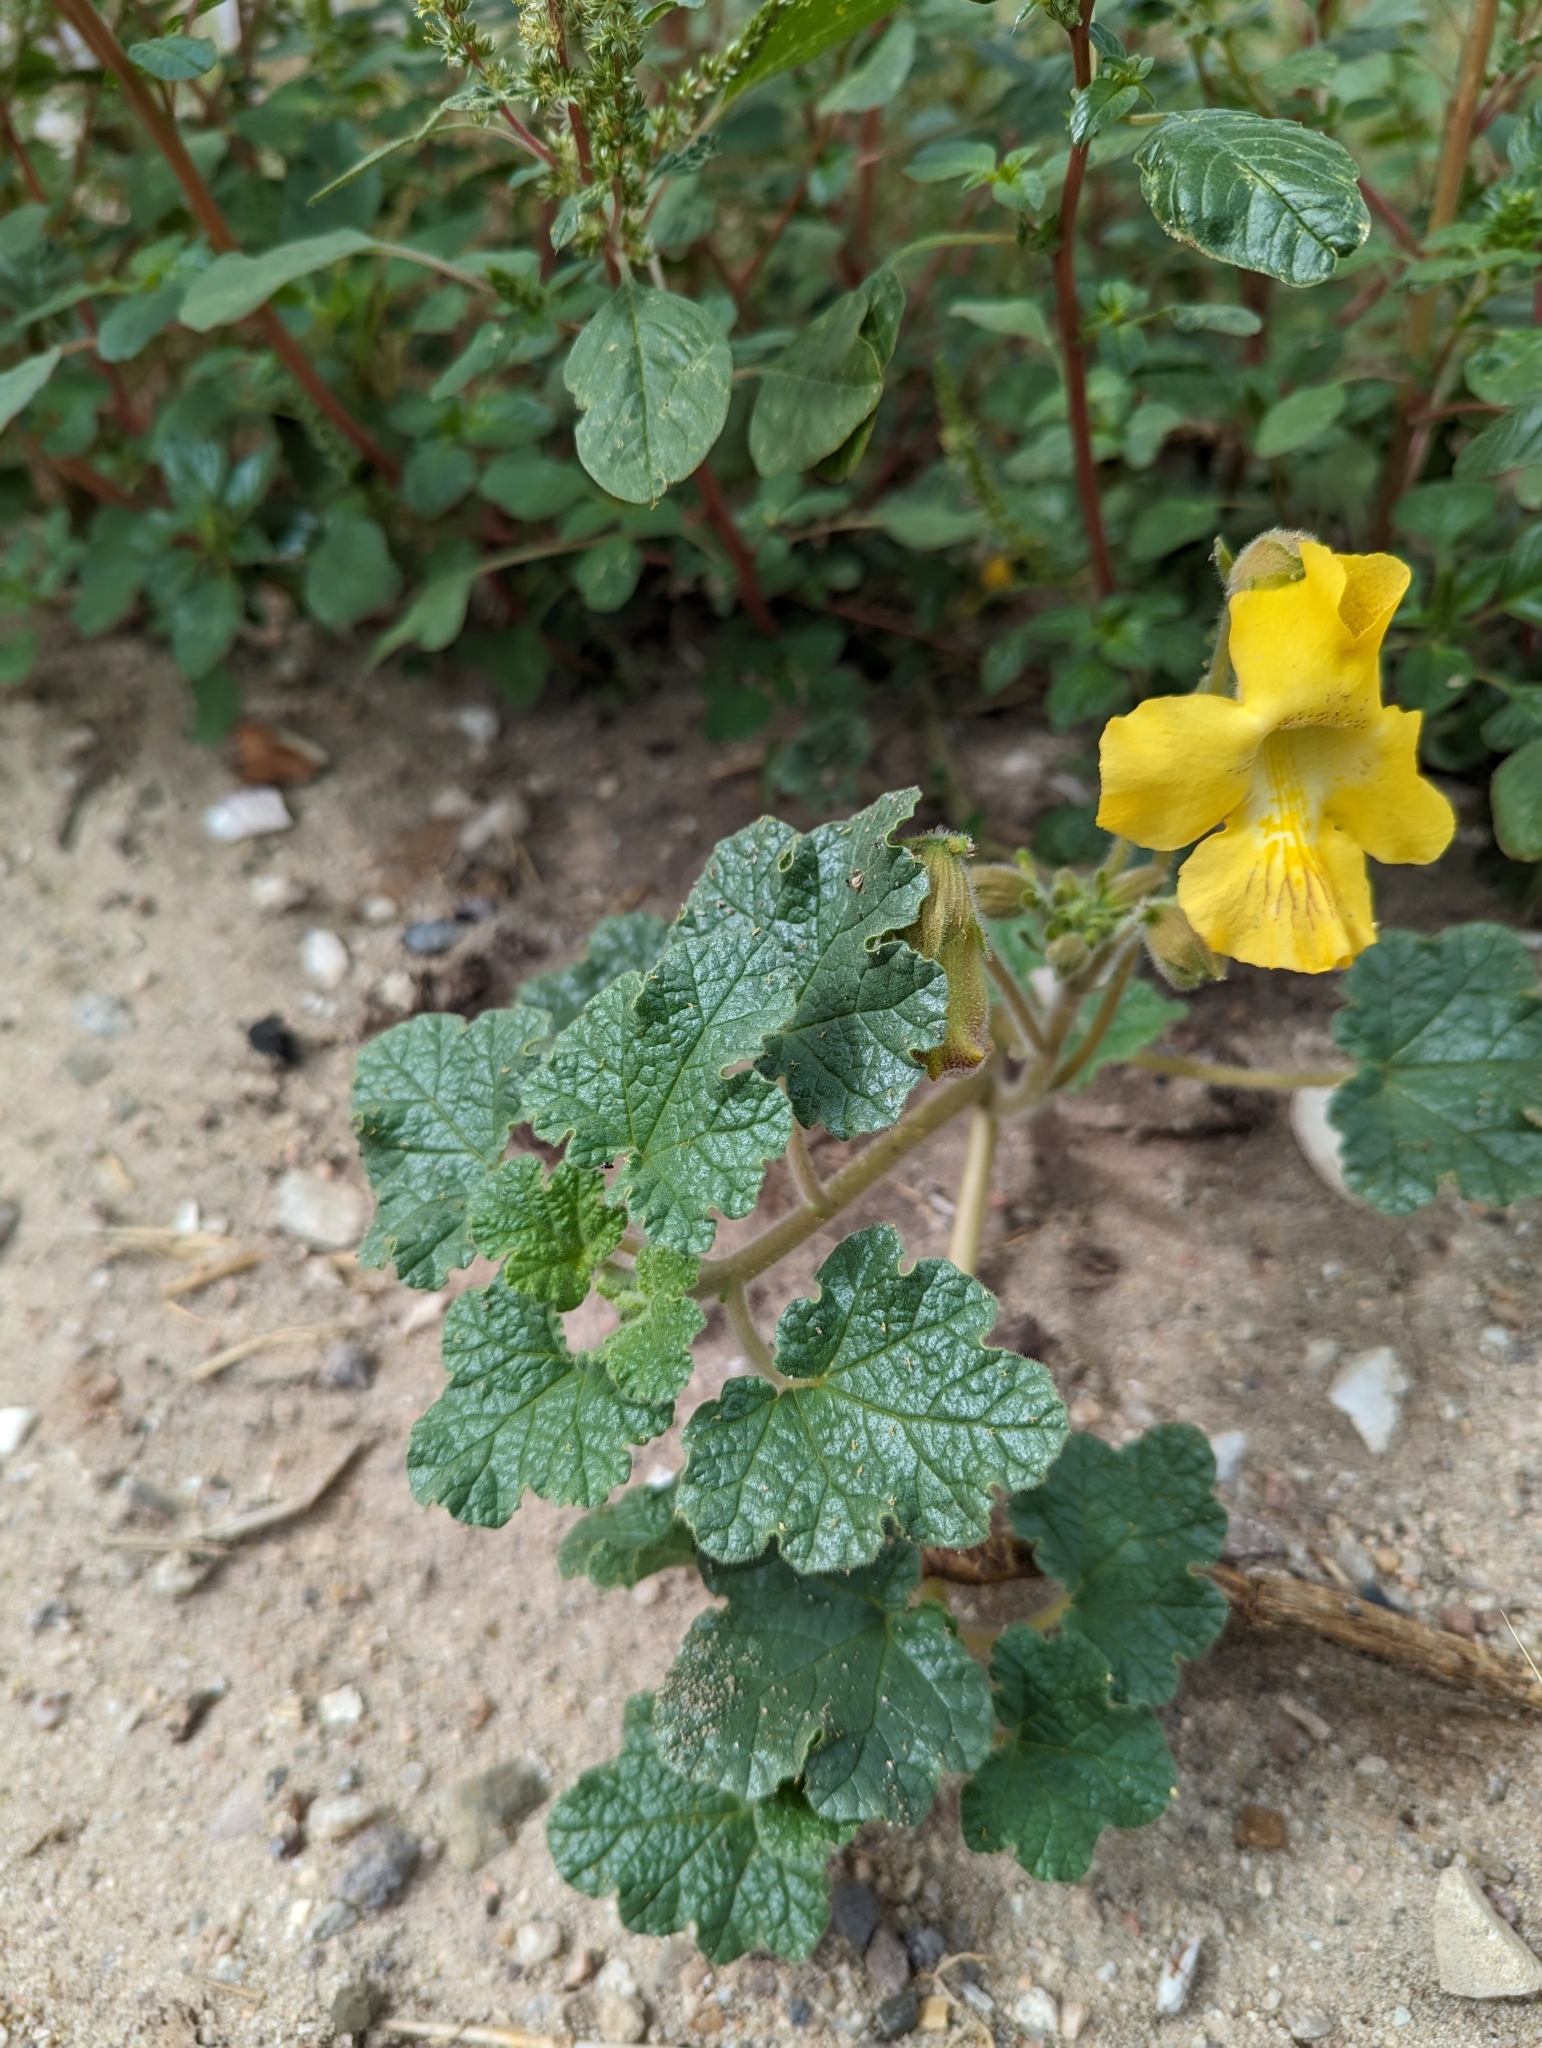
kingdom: Plantae
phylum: Tracheophyta
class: Magnoliopsida
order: Lamiales
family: Martyniaceae
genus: Proboscidea
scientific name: Proboscidea althaeifolia
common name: Desert unicorn-plant
